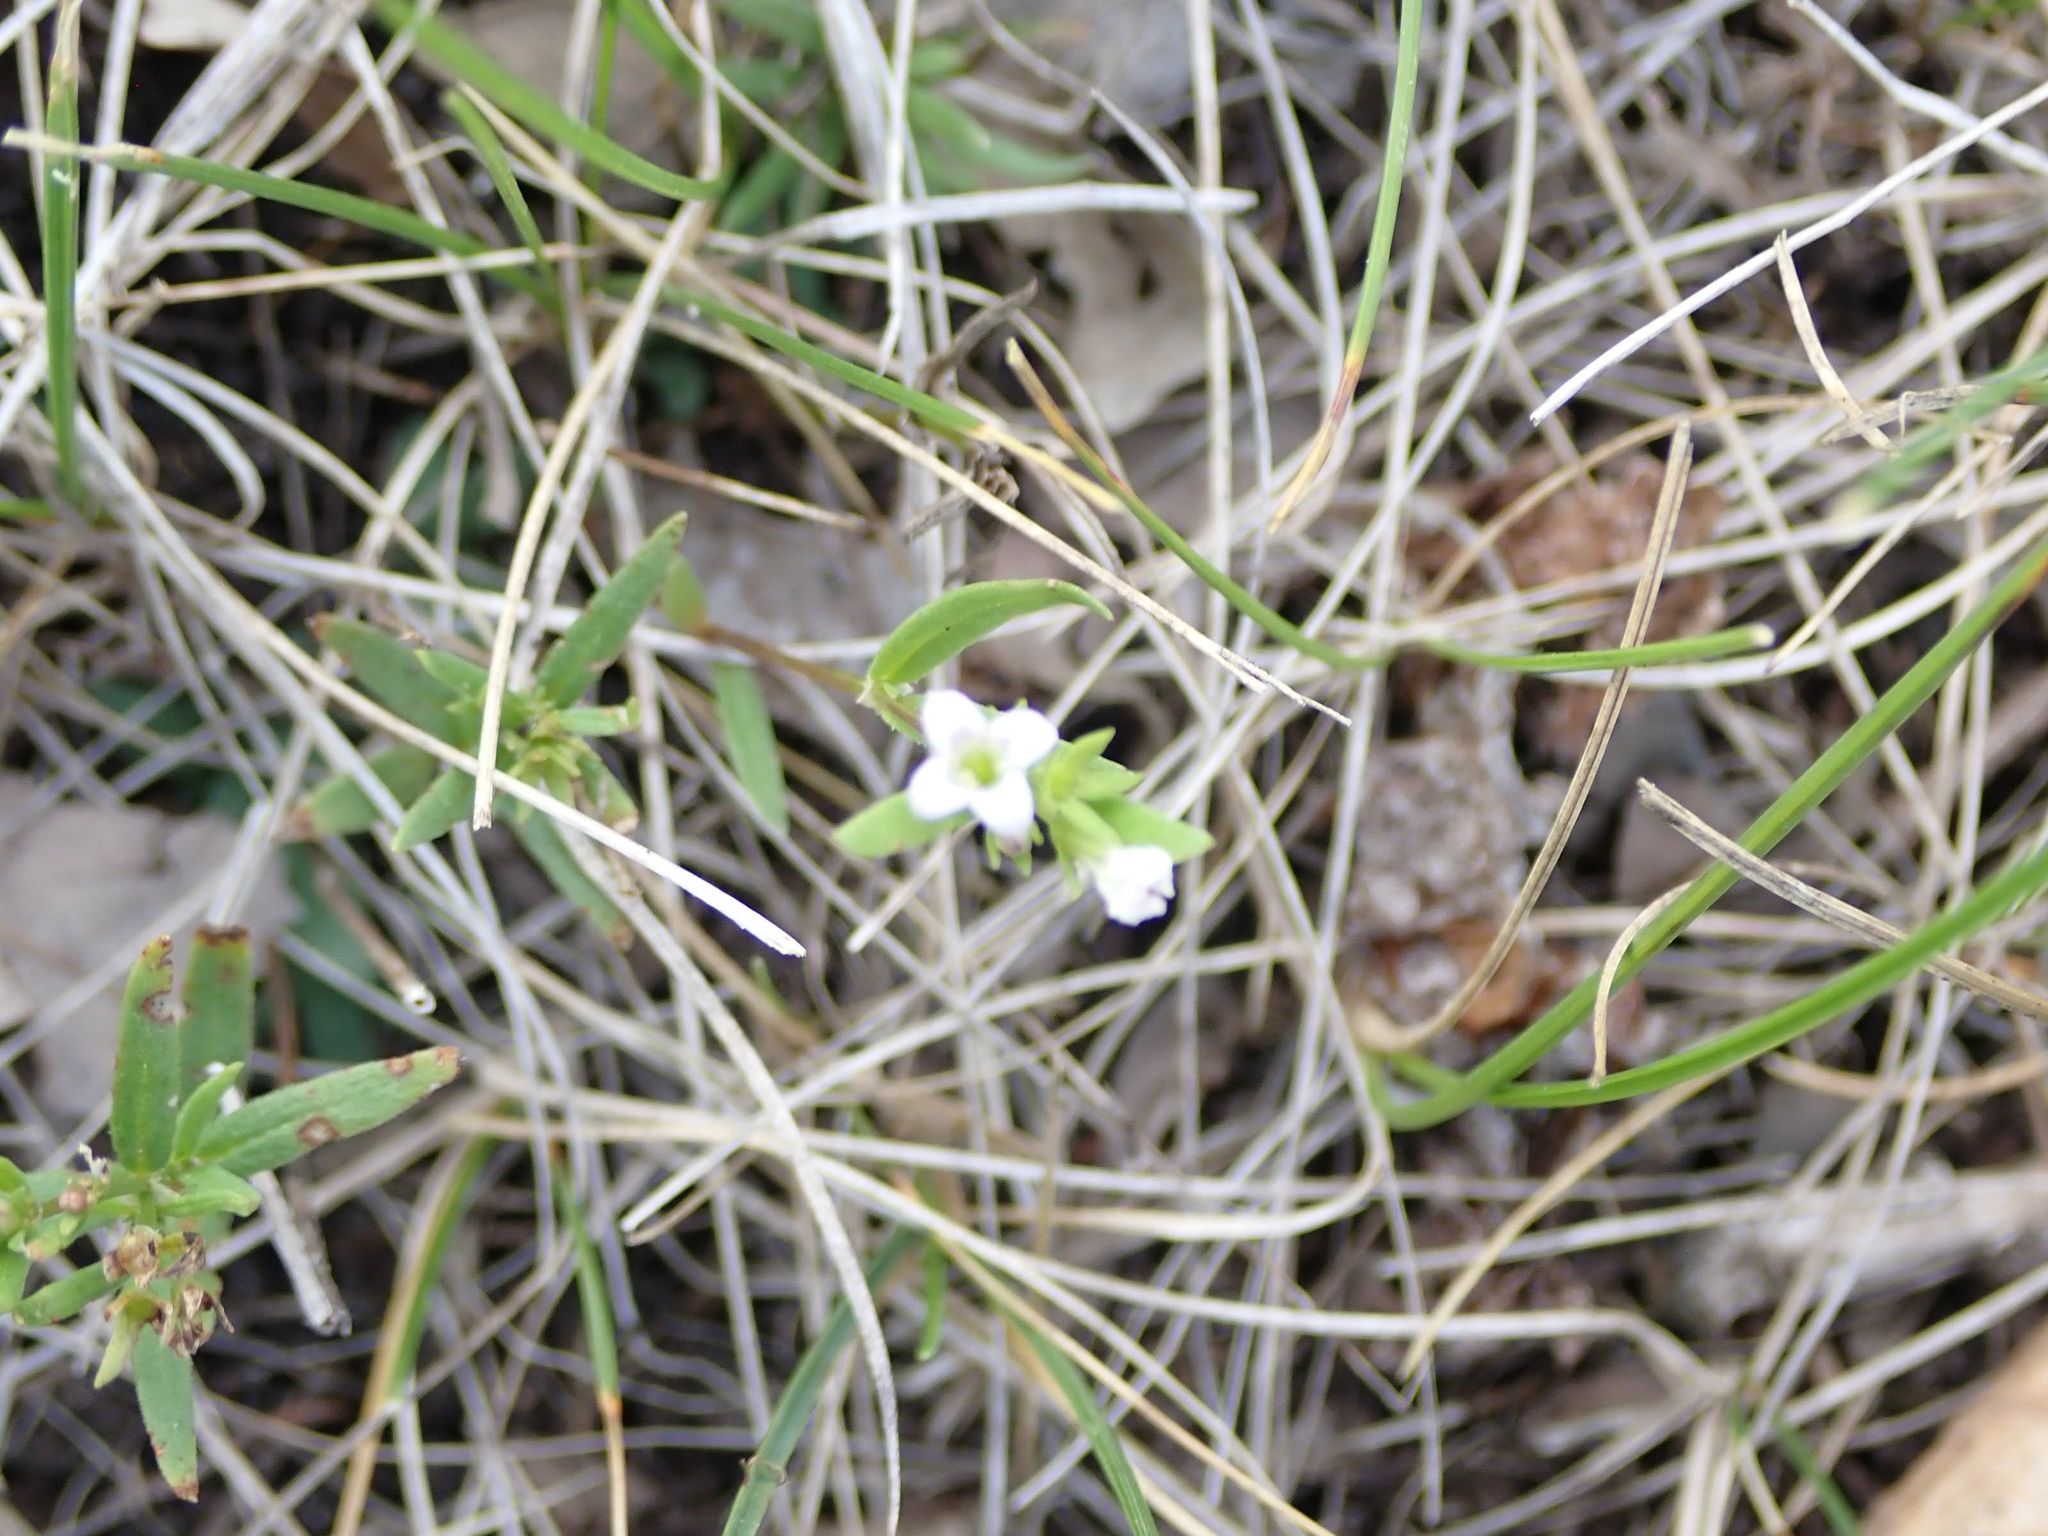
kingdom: Plantae
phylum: Tracheophyta
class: Magnoliopsida
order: Gentianales
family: Rubiaceae
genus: Houstonia
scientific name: Houstonia longifolia
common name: Long-leaved bluets
